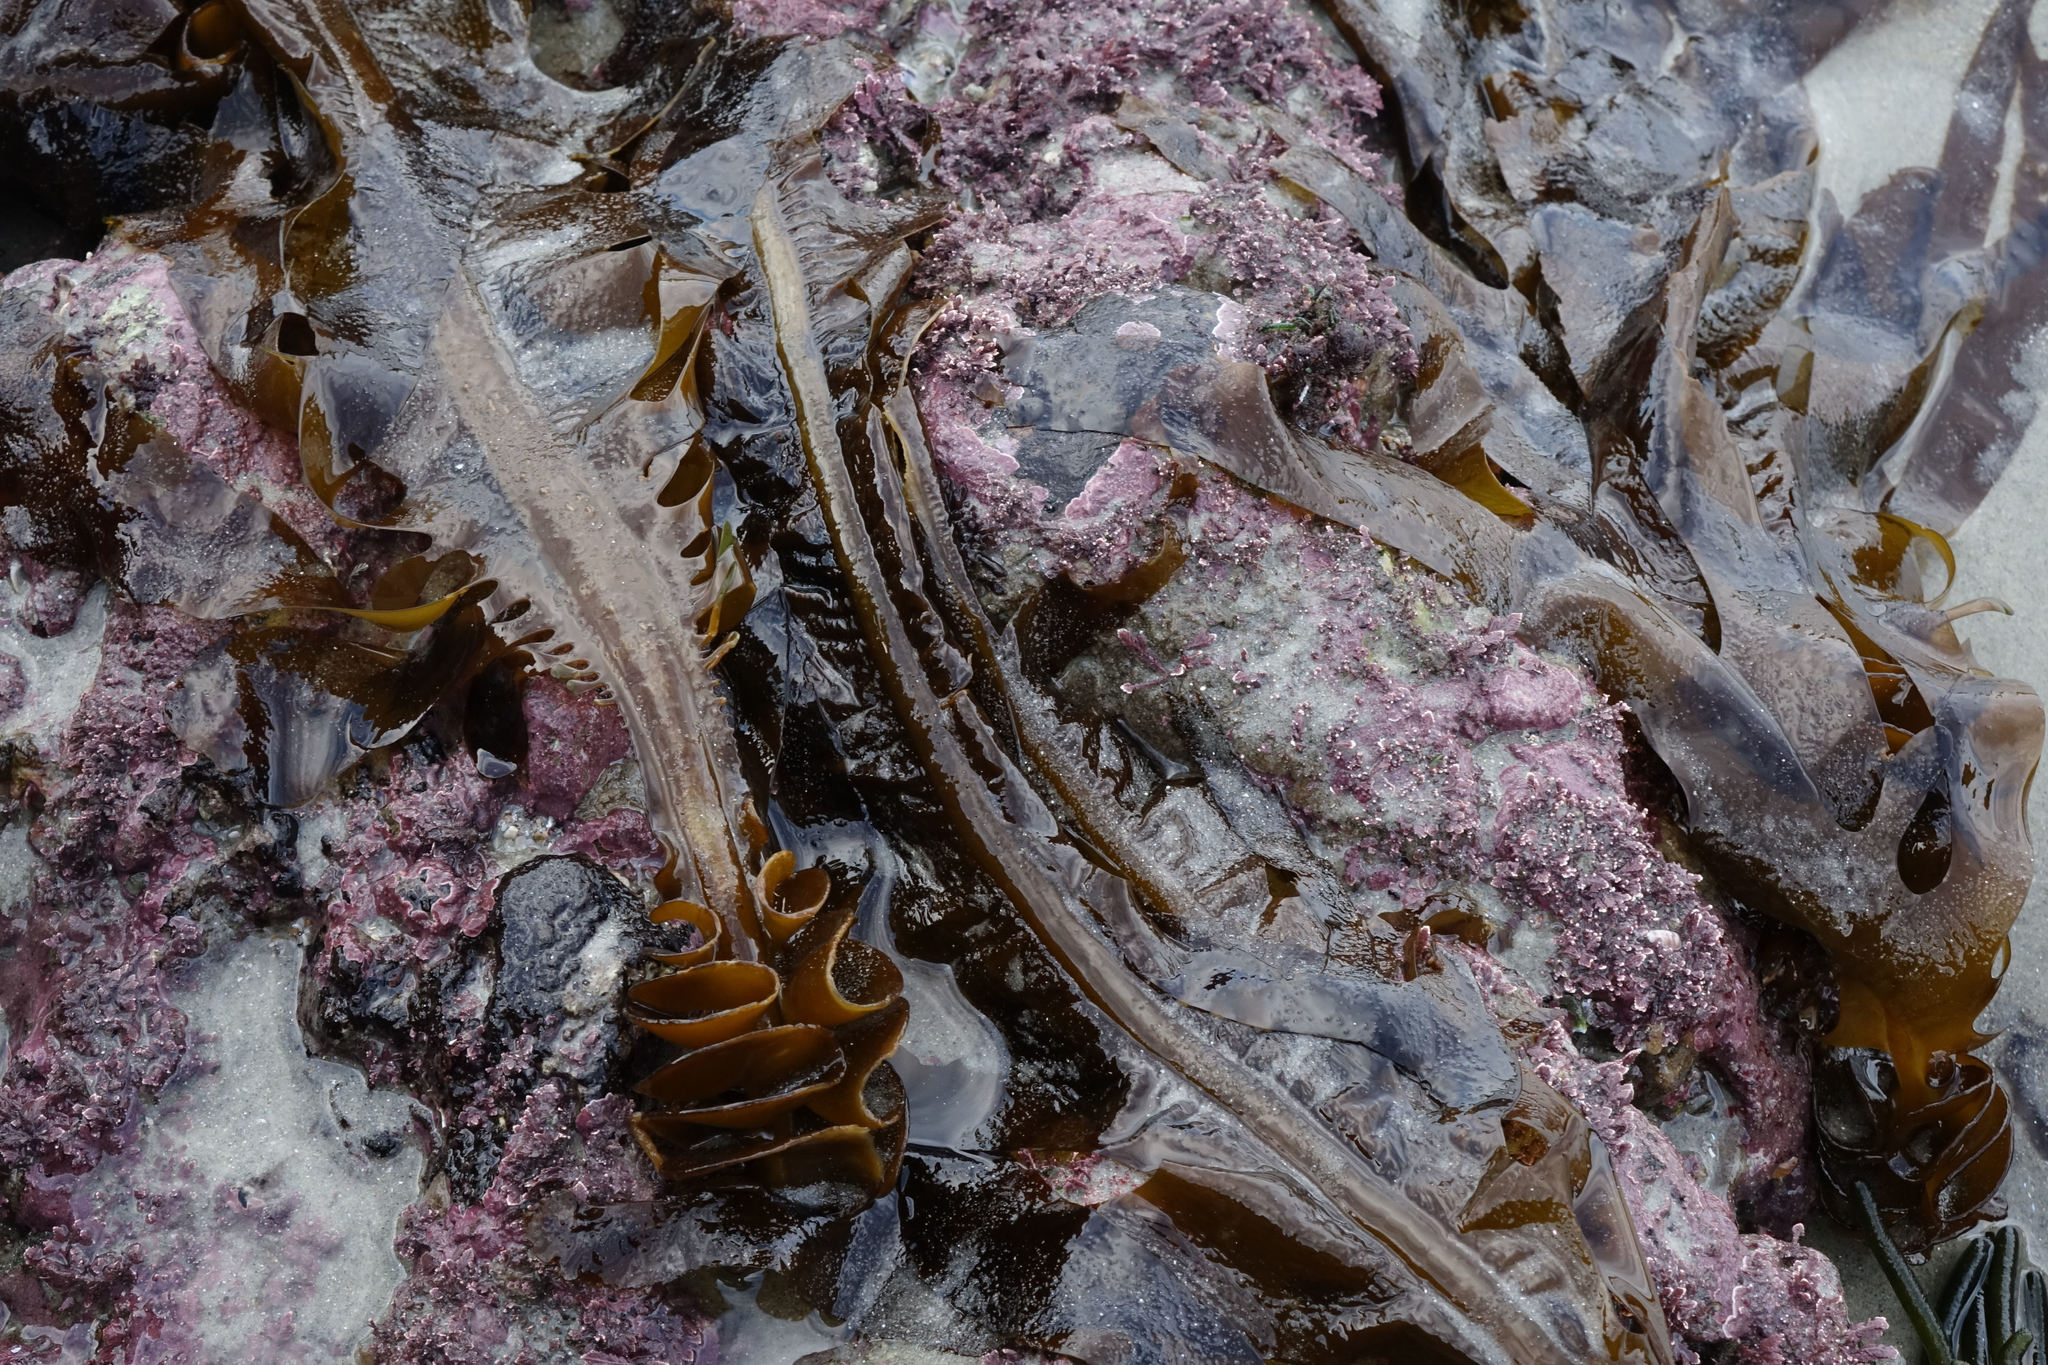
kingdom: Chromista
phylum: Ochrophyta
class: Phaeophyceae
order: Laminariales
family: Alariaceae
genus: Undaria
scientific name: Undaria pinnatifida
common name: Asian kelp
